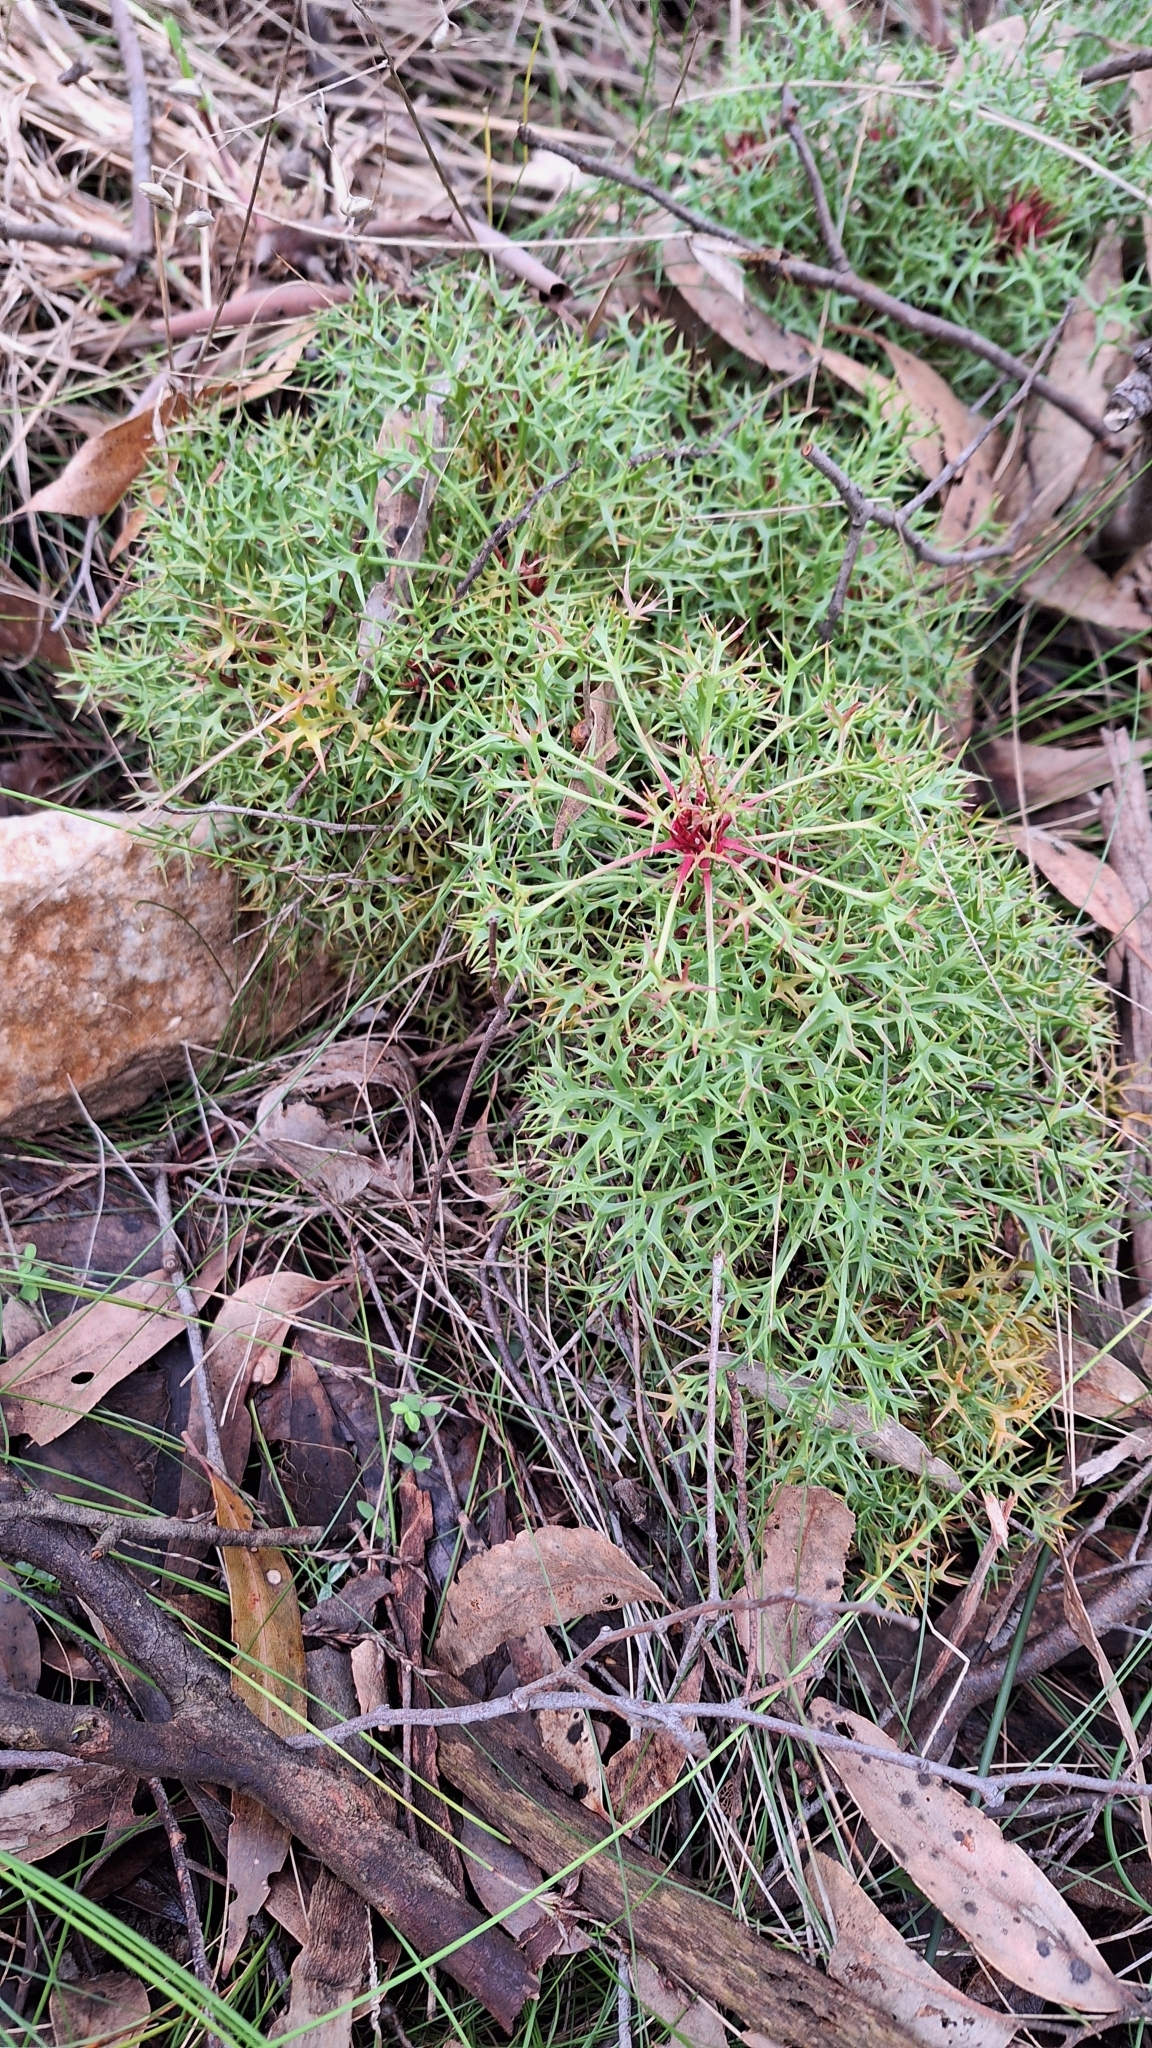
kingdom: Plantae
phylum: Tracheophyta
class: Magnoliopsida
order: Proteales
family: Proteaceae
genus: Isopogon
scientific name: Isopogon ceratophyllus
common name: Horny cone-bush
